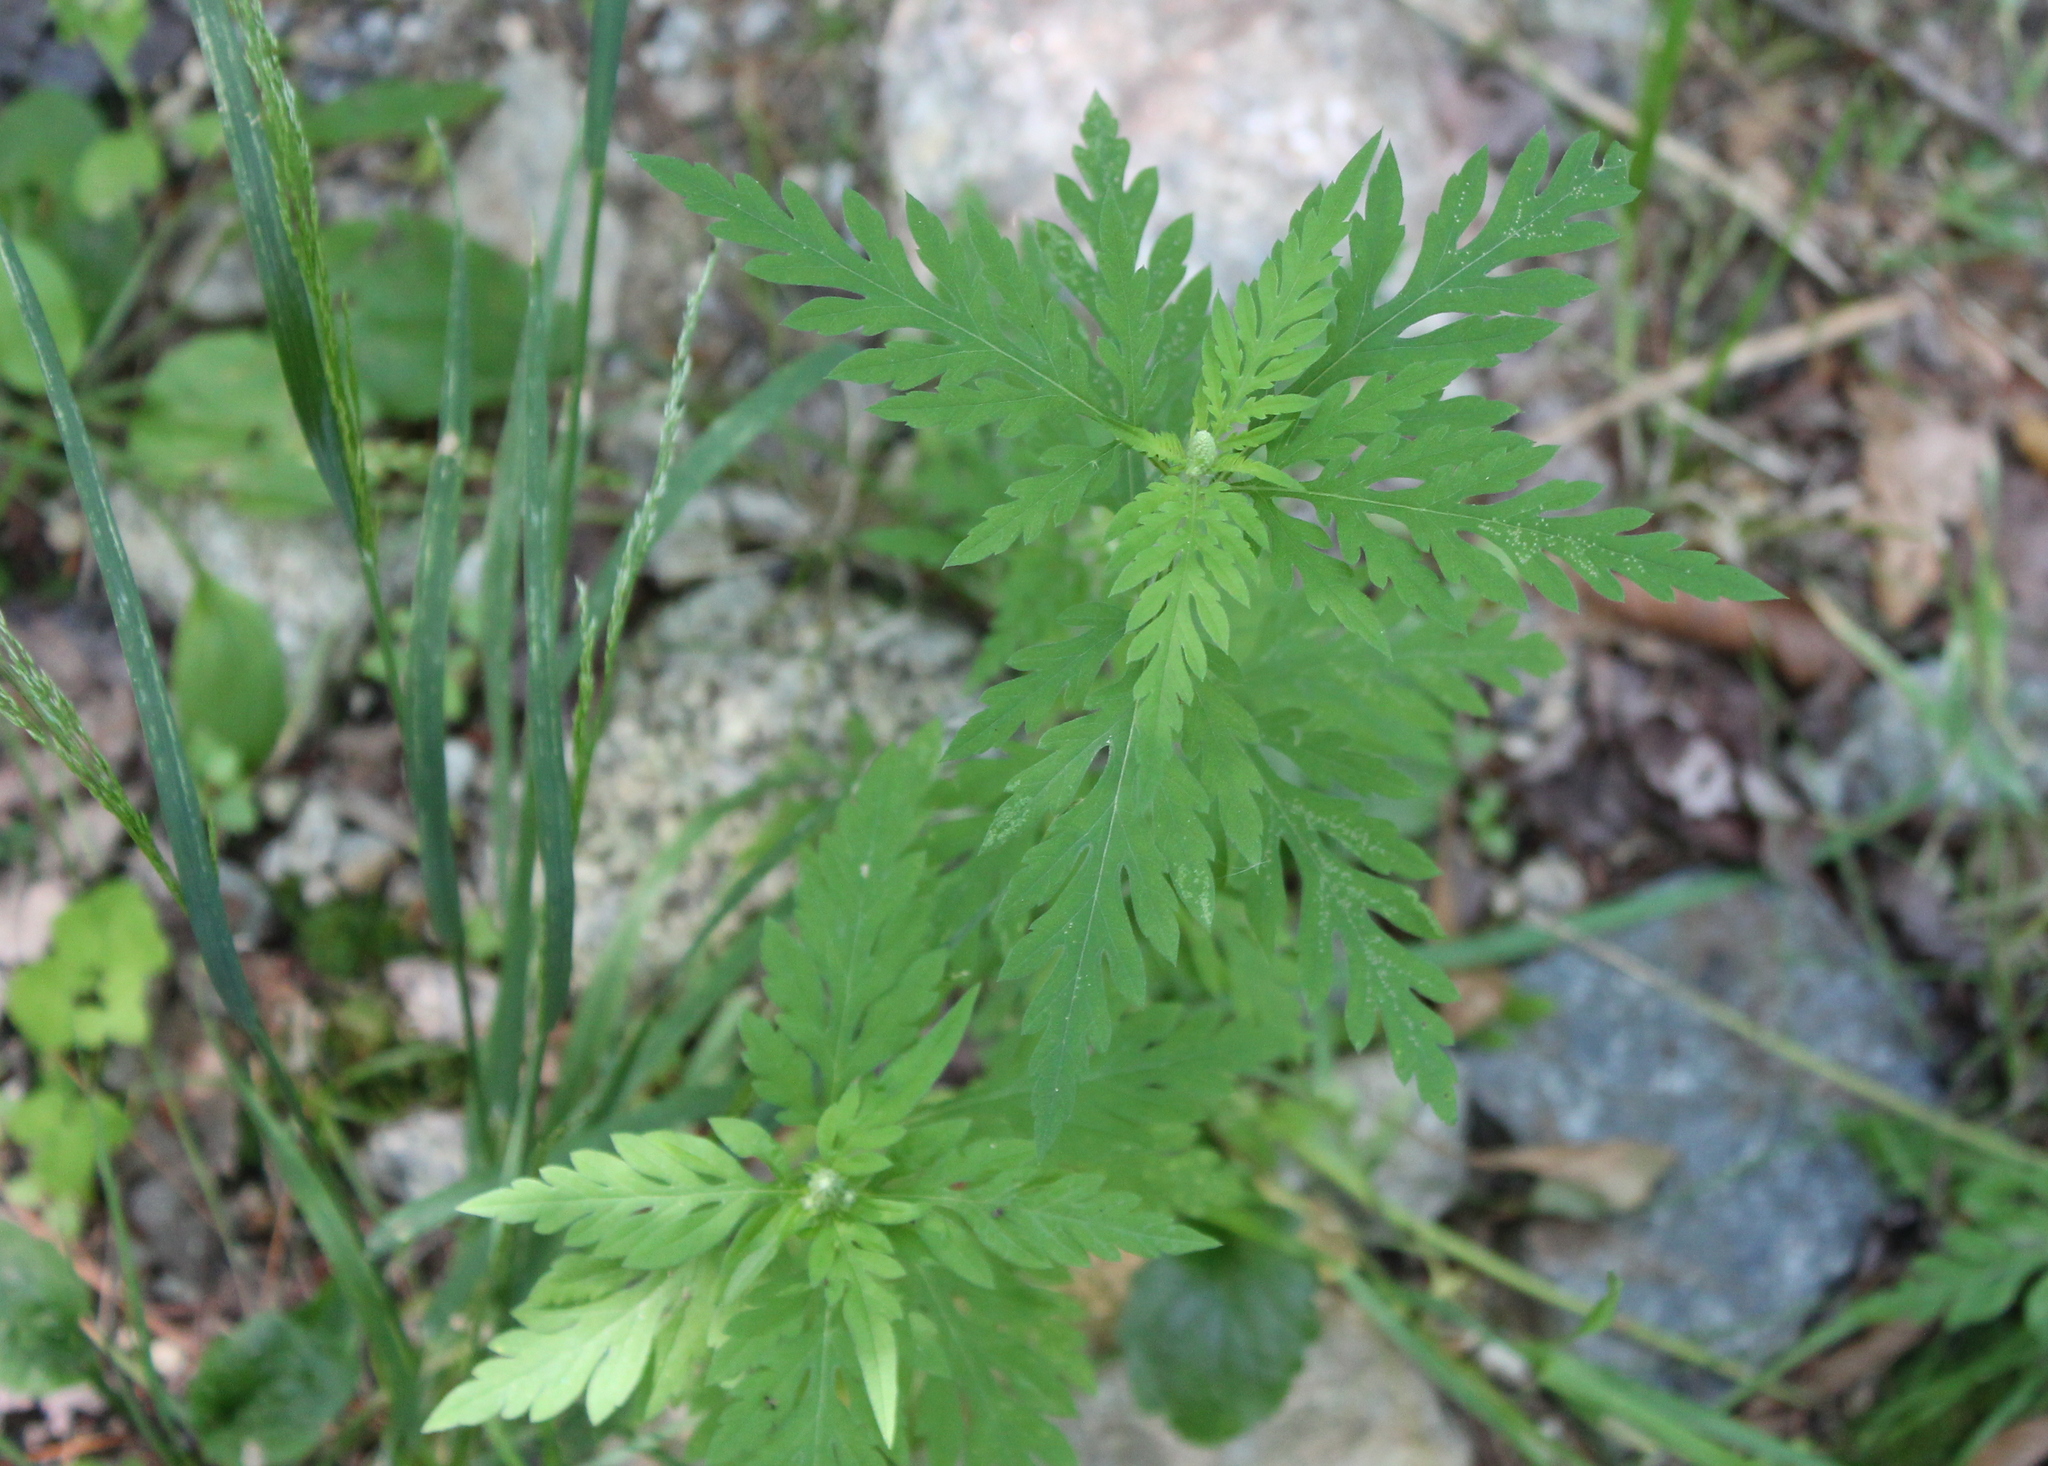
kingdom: Plantae
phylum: Tracheophyta
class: Magnoliopsida
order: Asterales
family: Asteraceae
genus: Ambrosia
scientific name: Ambrosia artemisiifolia
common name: Annual ragweed
